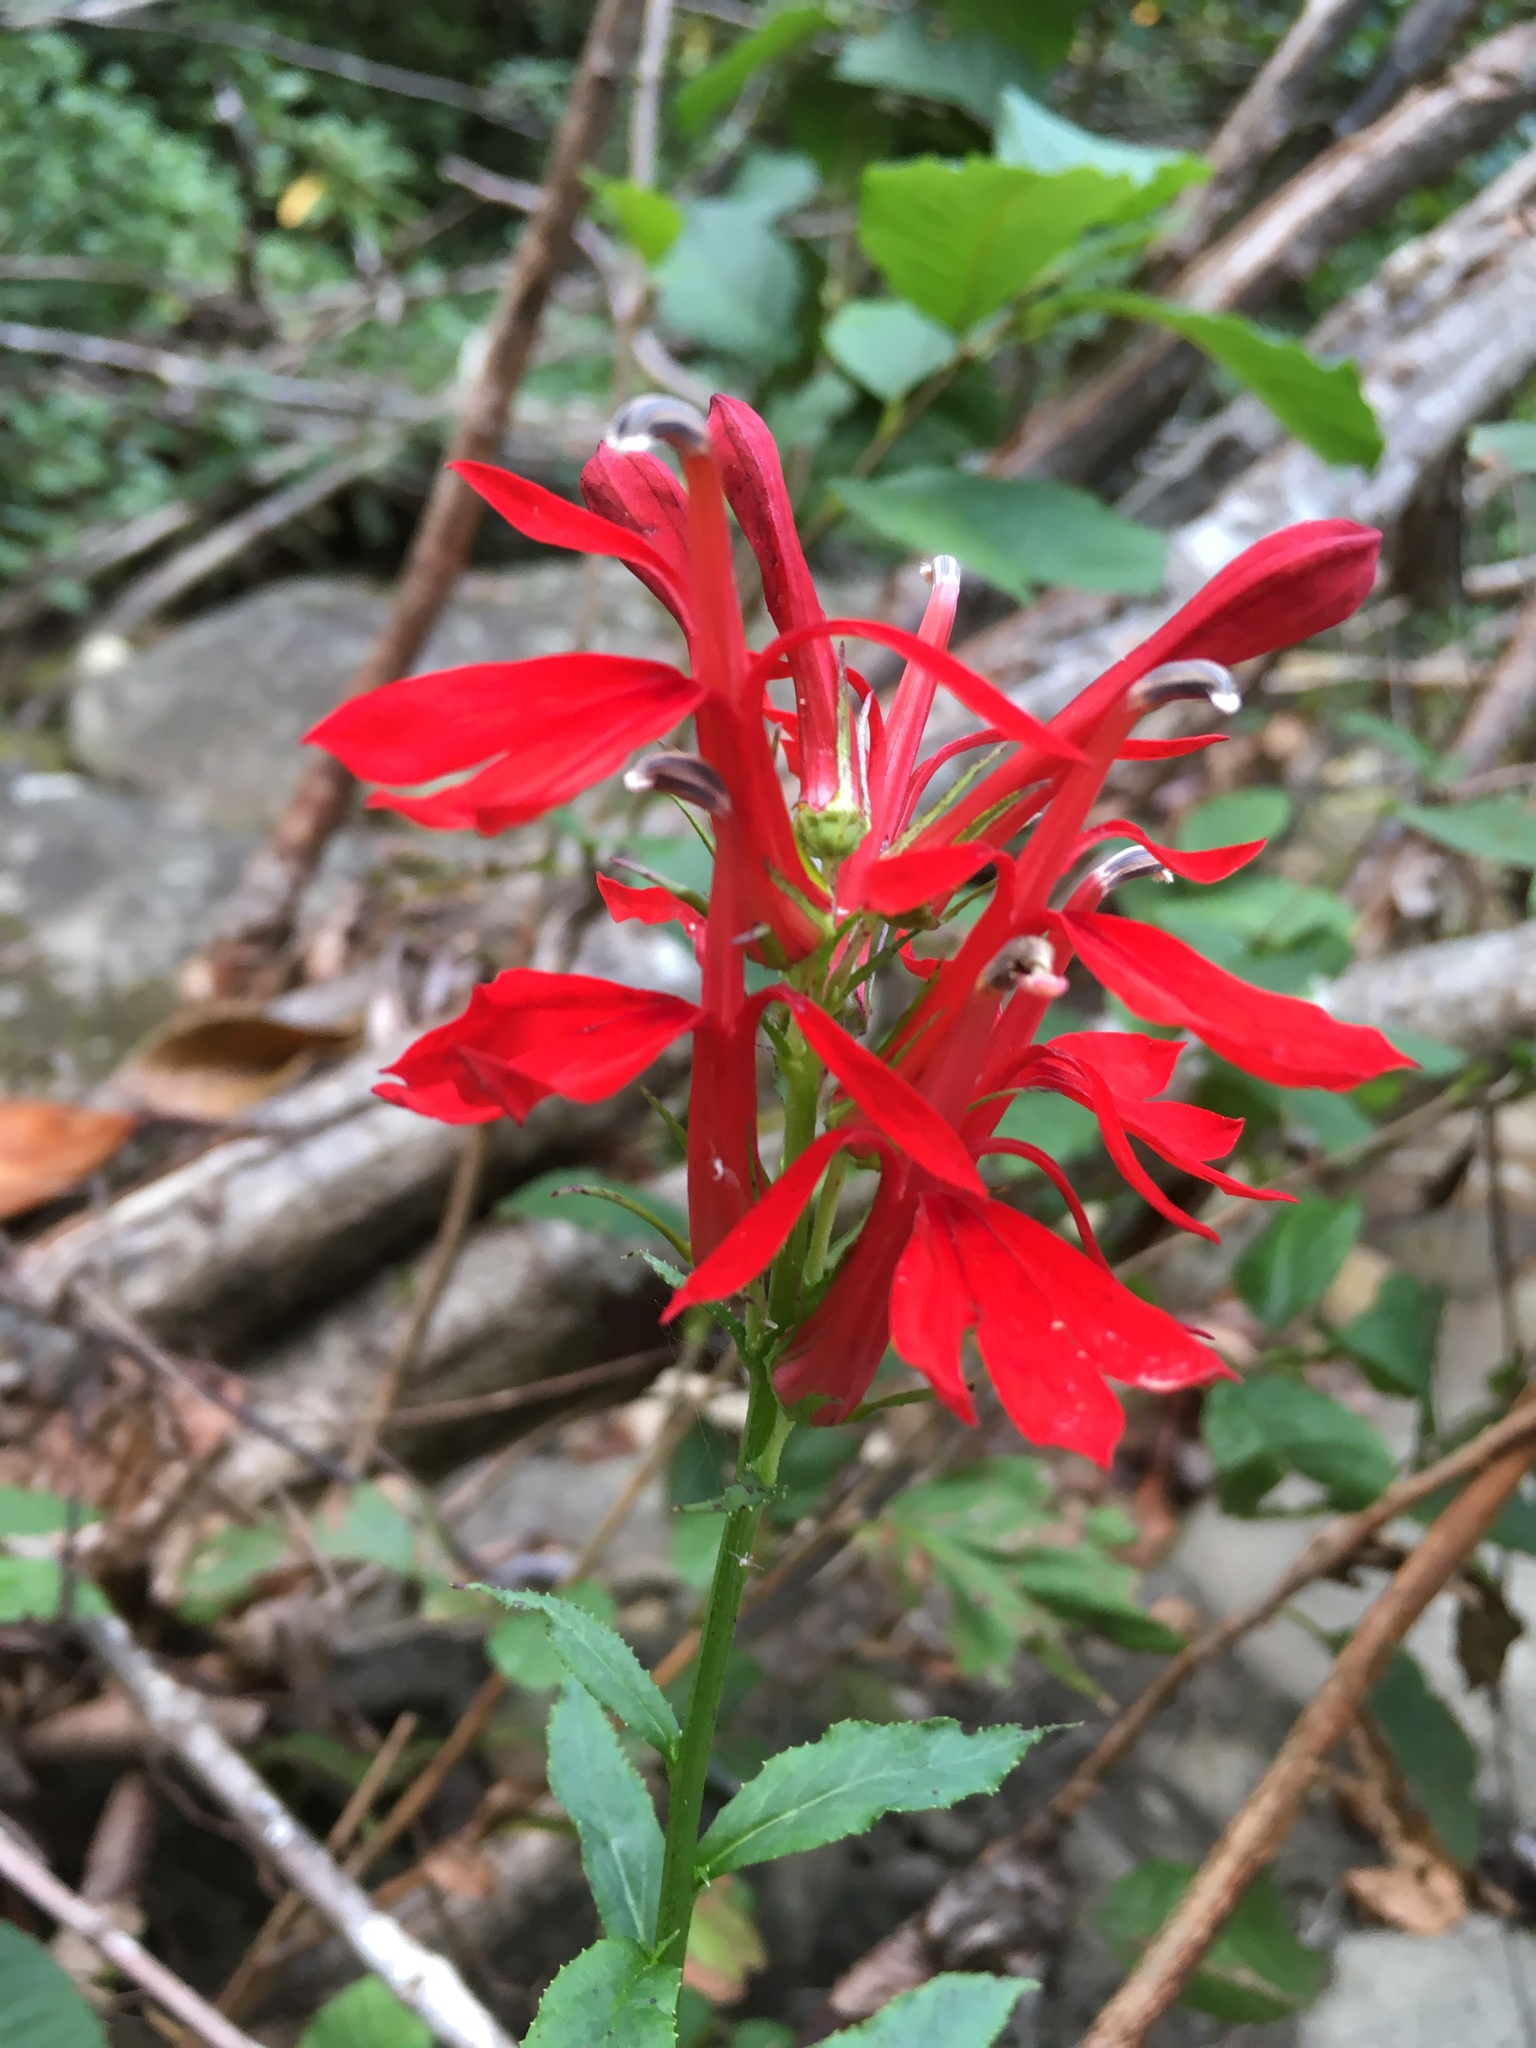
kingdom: Plantae
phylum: Tracheophyta
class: Magnoliopsida
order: Asterales
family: Campanulaceae
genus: Lobelia
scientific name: Lobelia cardinalis
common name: Cardinal flower
